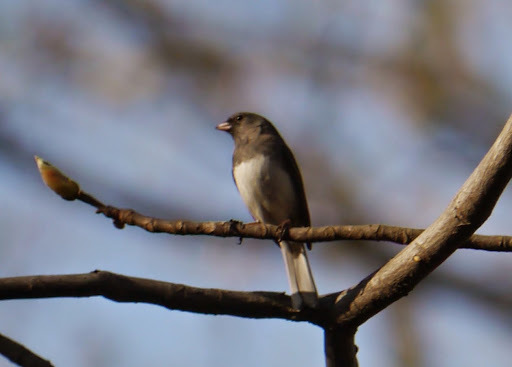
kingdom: Animalia
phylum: Chordata
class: Aves
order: Passeriformes
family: Passerellidae
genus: Junco
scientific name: Junco hyemalis
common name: Dark-eyed junco
